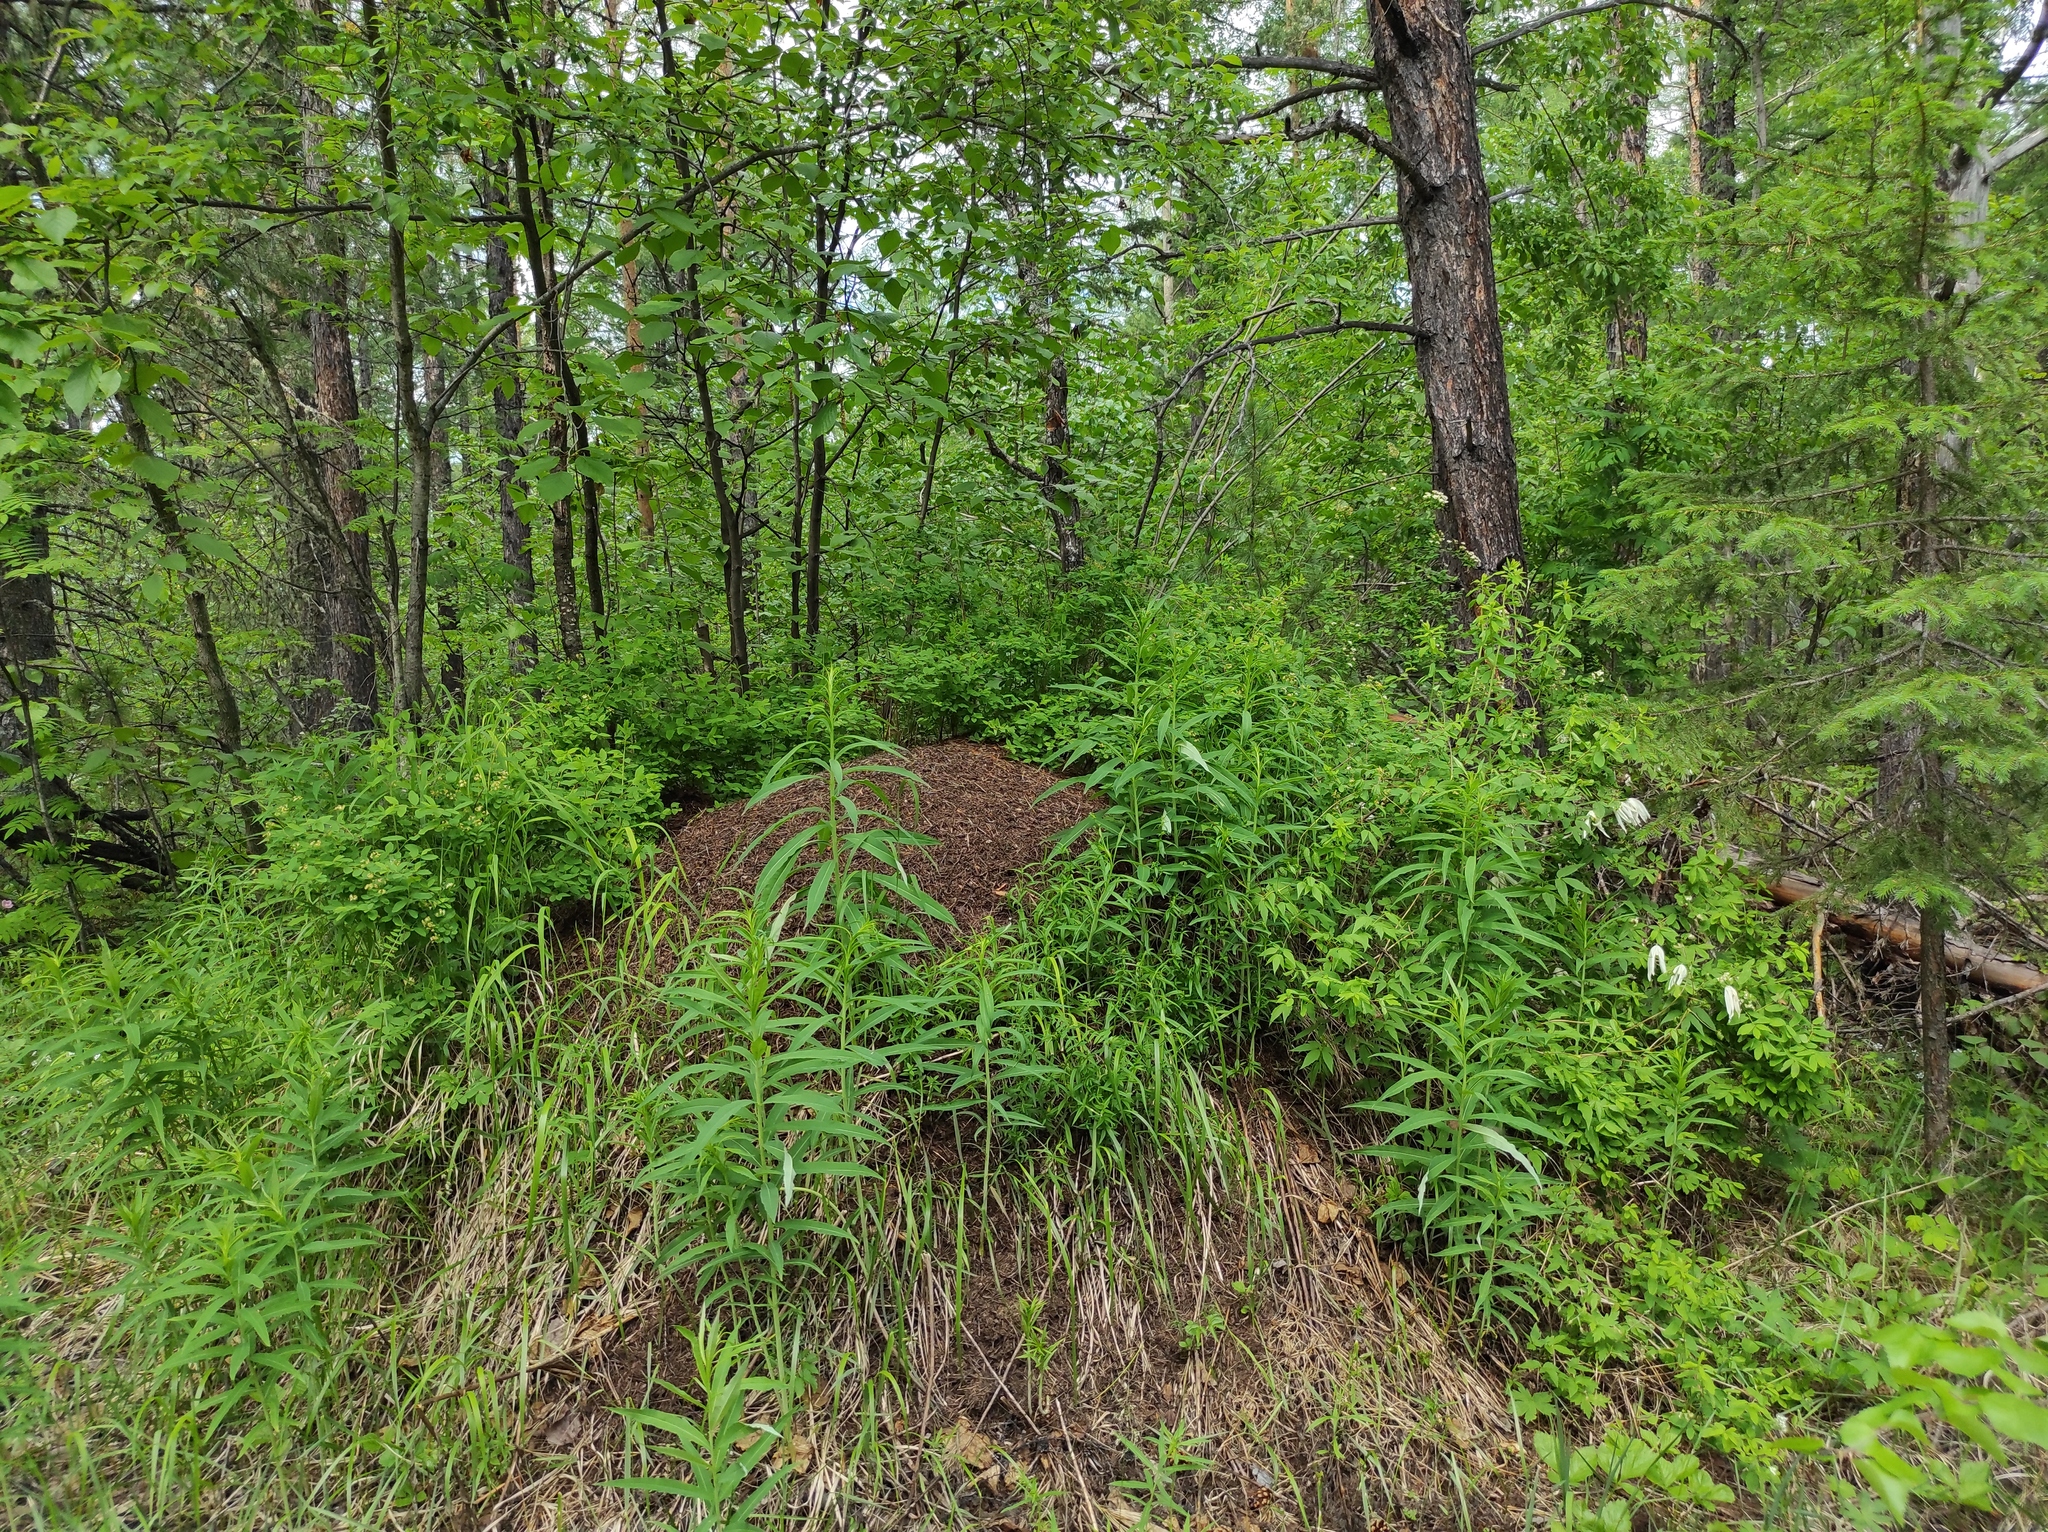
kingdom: Plantae
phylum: Tracheophyta
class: Magnoliopsida
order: Ranunculales
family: Ranunculaceae
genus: Clematis
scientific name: Clematis sibirica
